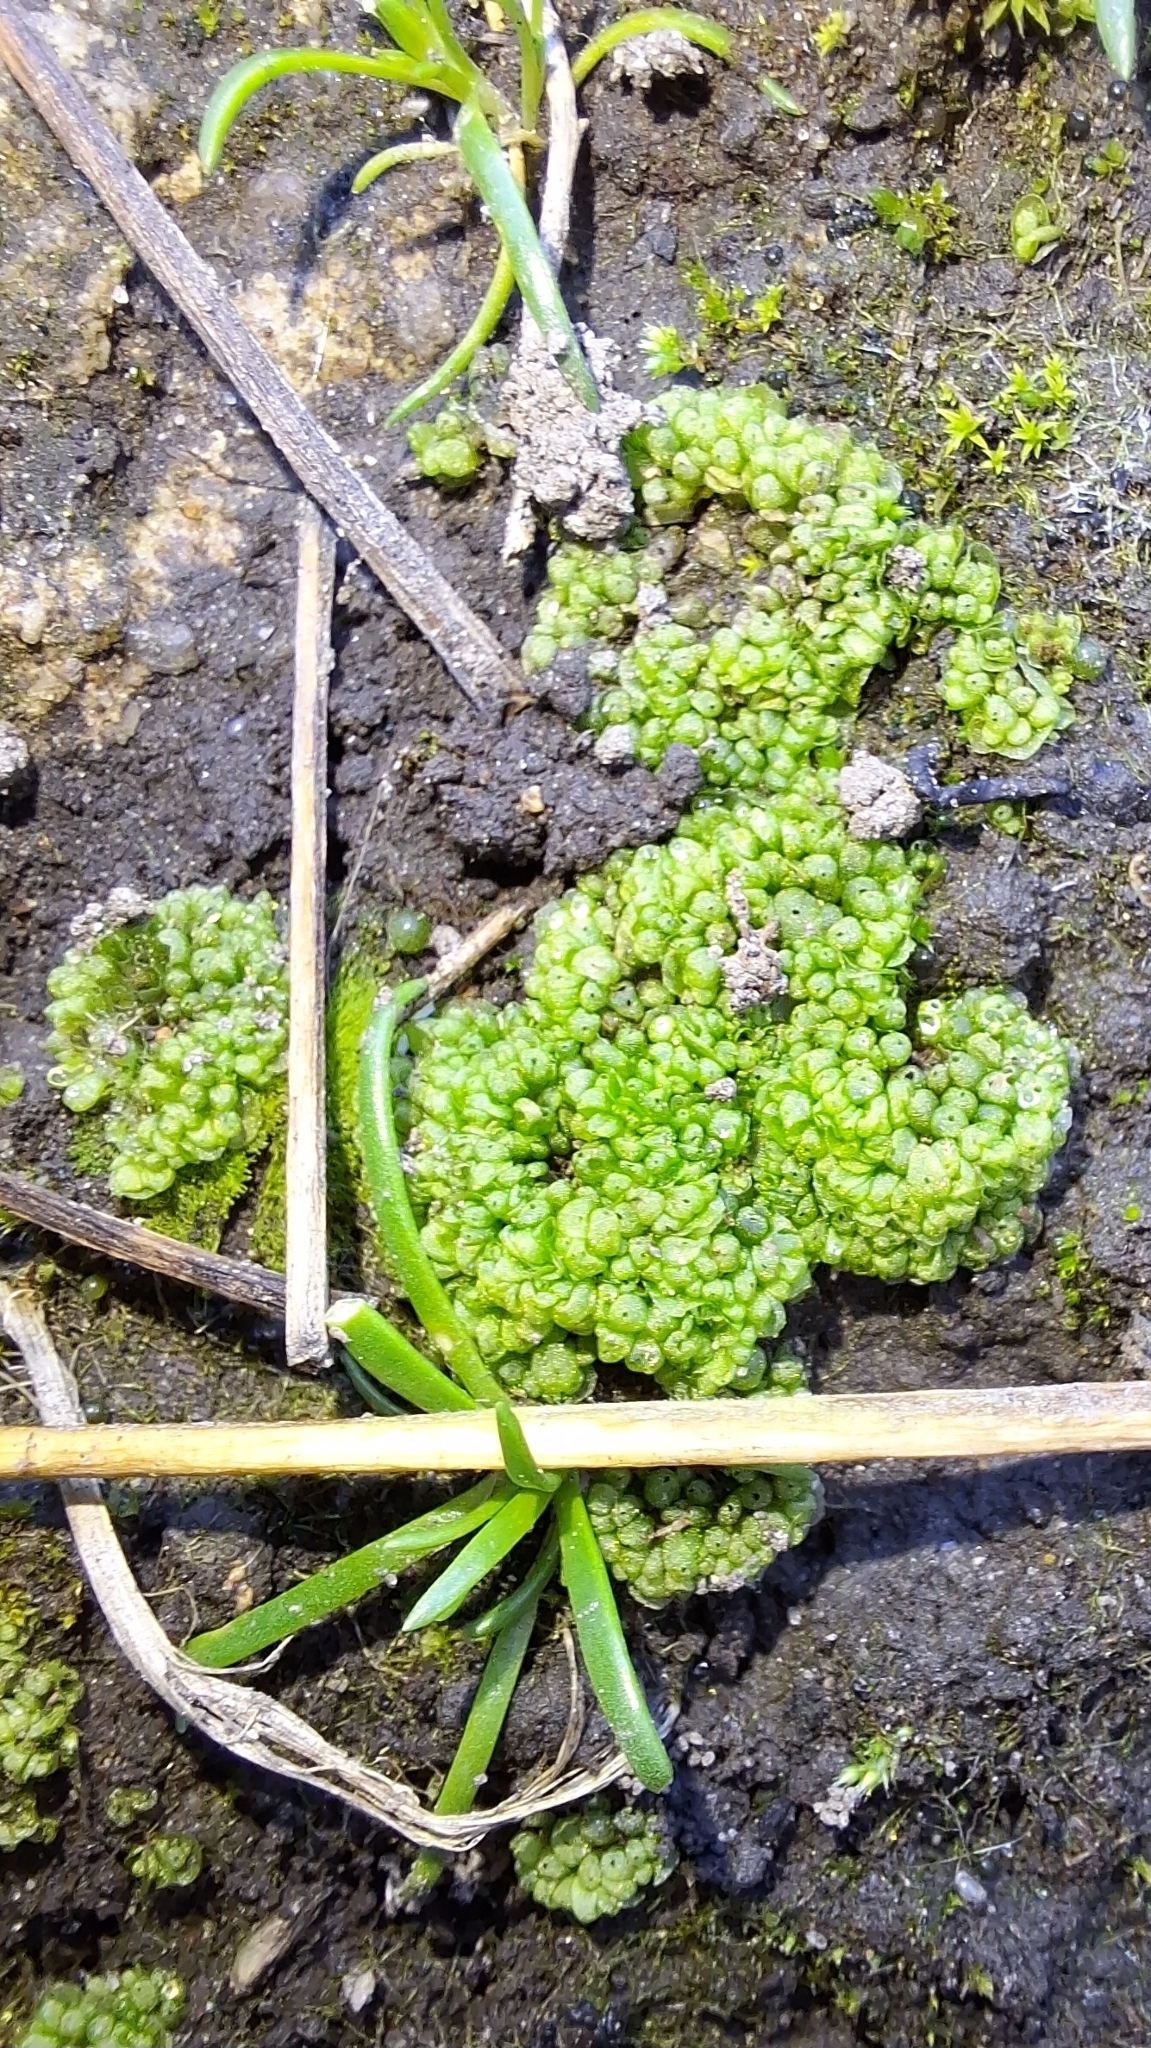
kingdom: Plantae
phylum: Marchantiophyta
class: Marchantiopsida
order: Sphaerocarpales
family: Sphaerocarpaceae
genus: Sphaerocarpos
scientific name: Sphaerocarpos texanus
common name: Texas balloonwort
